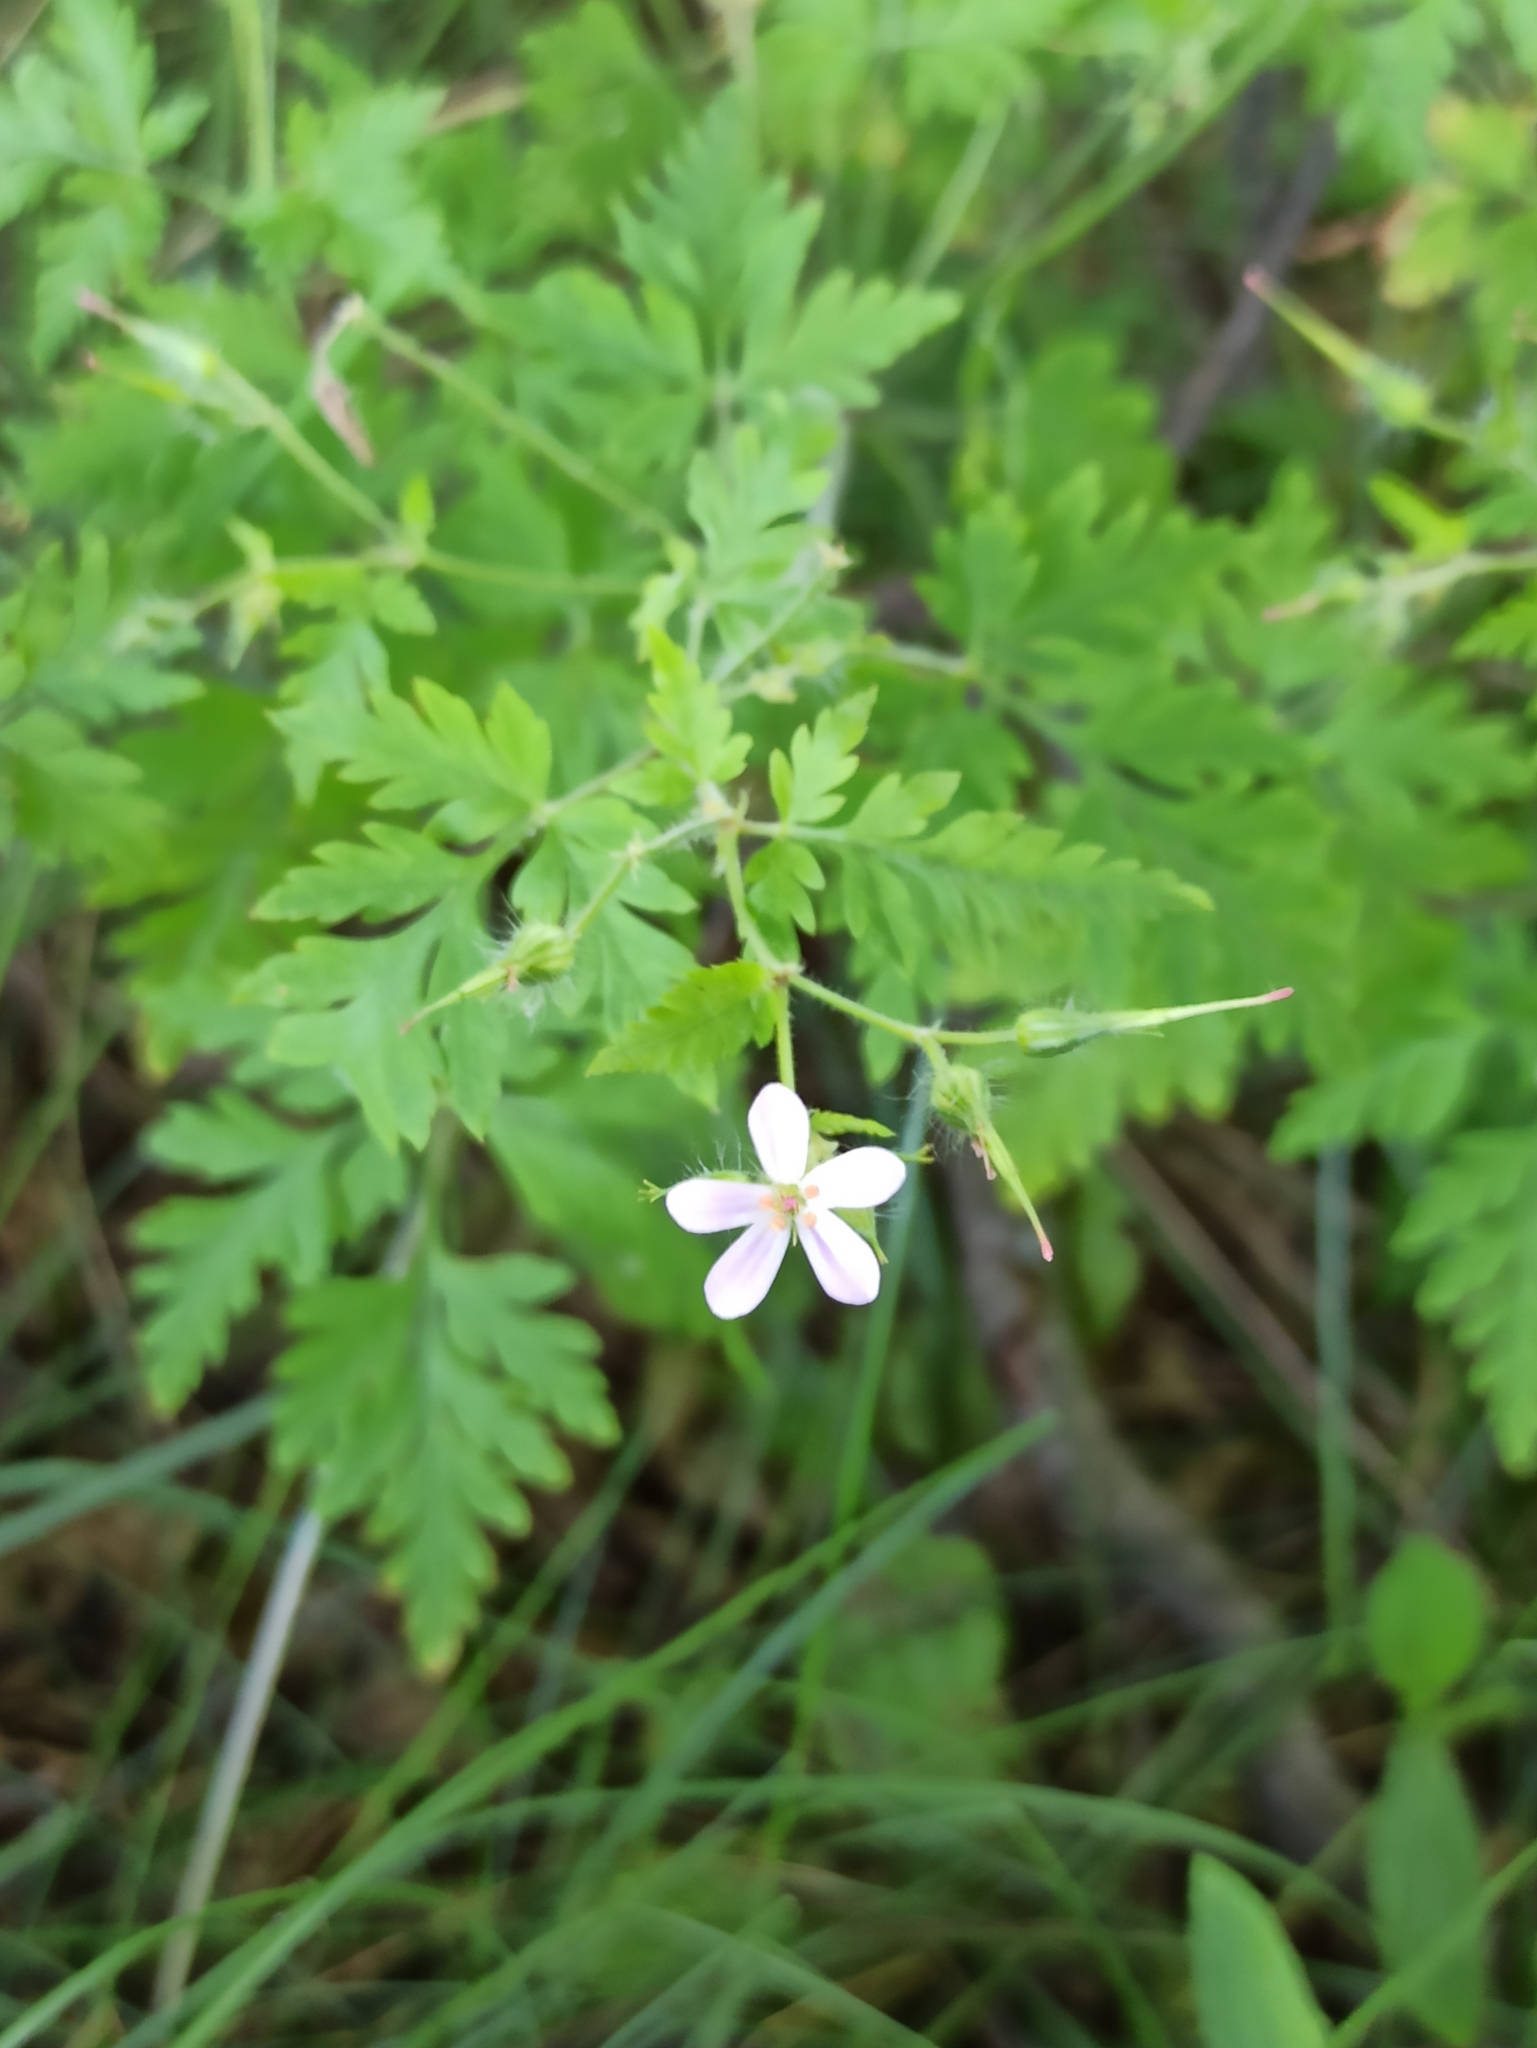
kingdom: Plantae
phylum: Tracheophyta
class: Magnoliopsida
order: Geraniales
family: Geraniaceae
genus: Geranium
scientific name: Geranium robertianum
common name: Herb-robert
